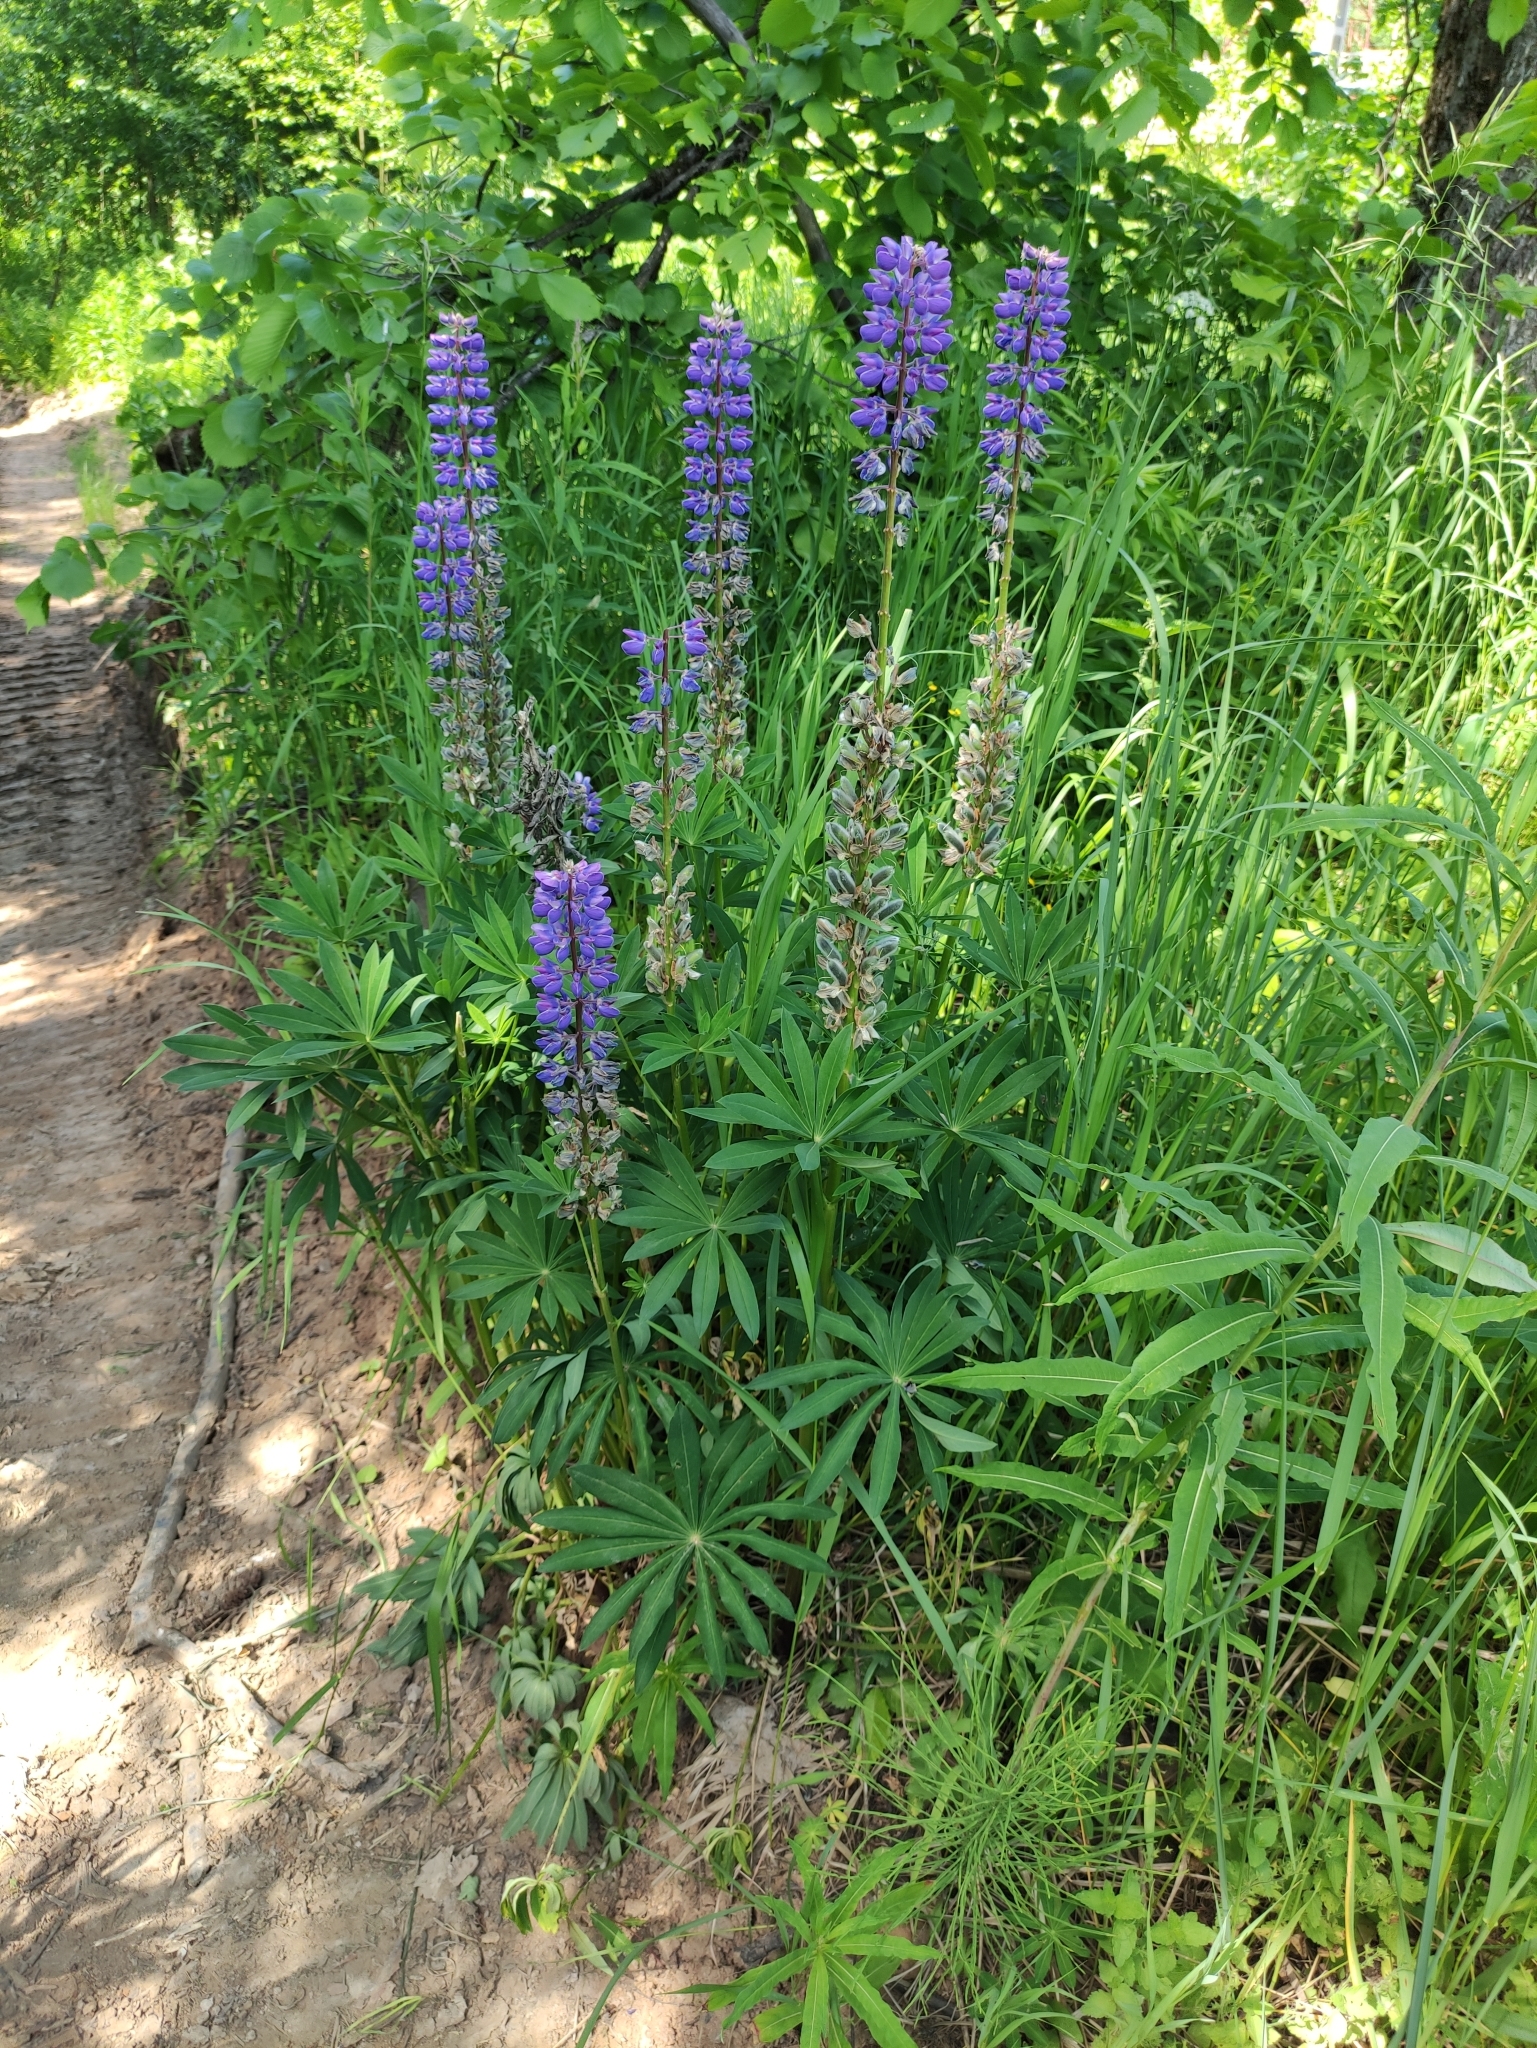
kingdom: Plantae
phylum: Tracheophyta
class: Magnoliopsida
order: Fabales
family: Fabaceae
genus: Lupinus
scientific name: Lupinus polyphyllus
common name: Garden lupin
